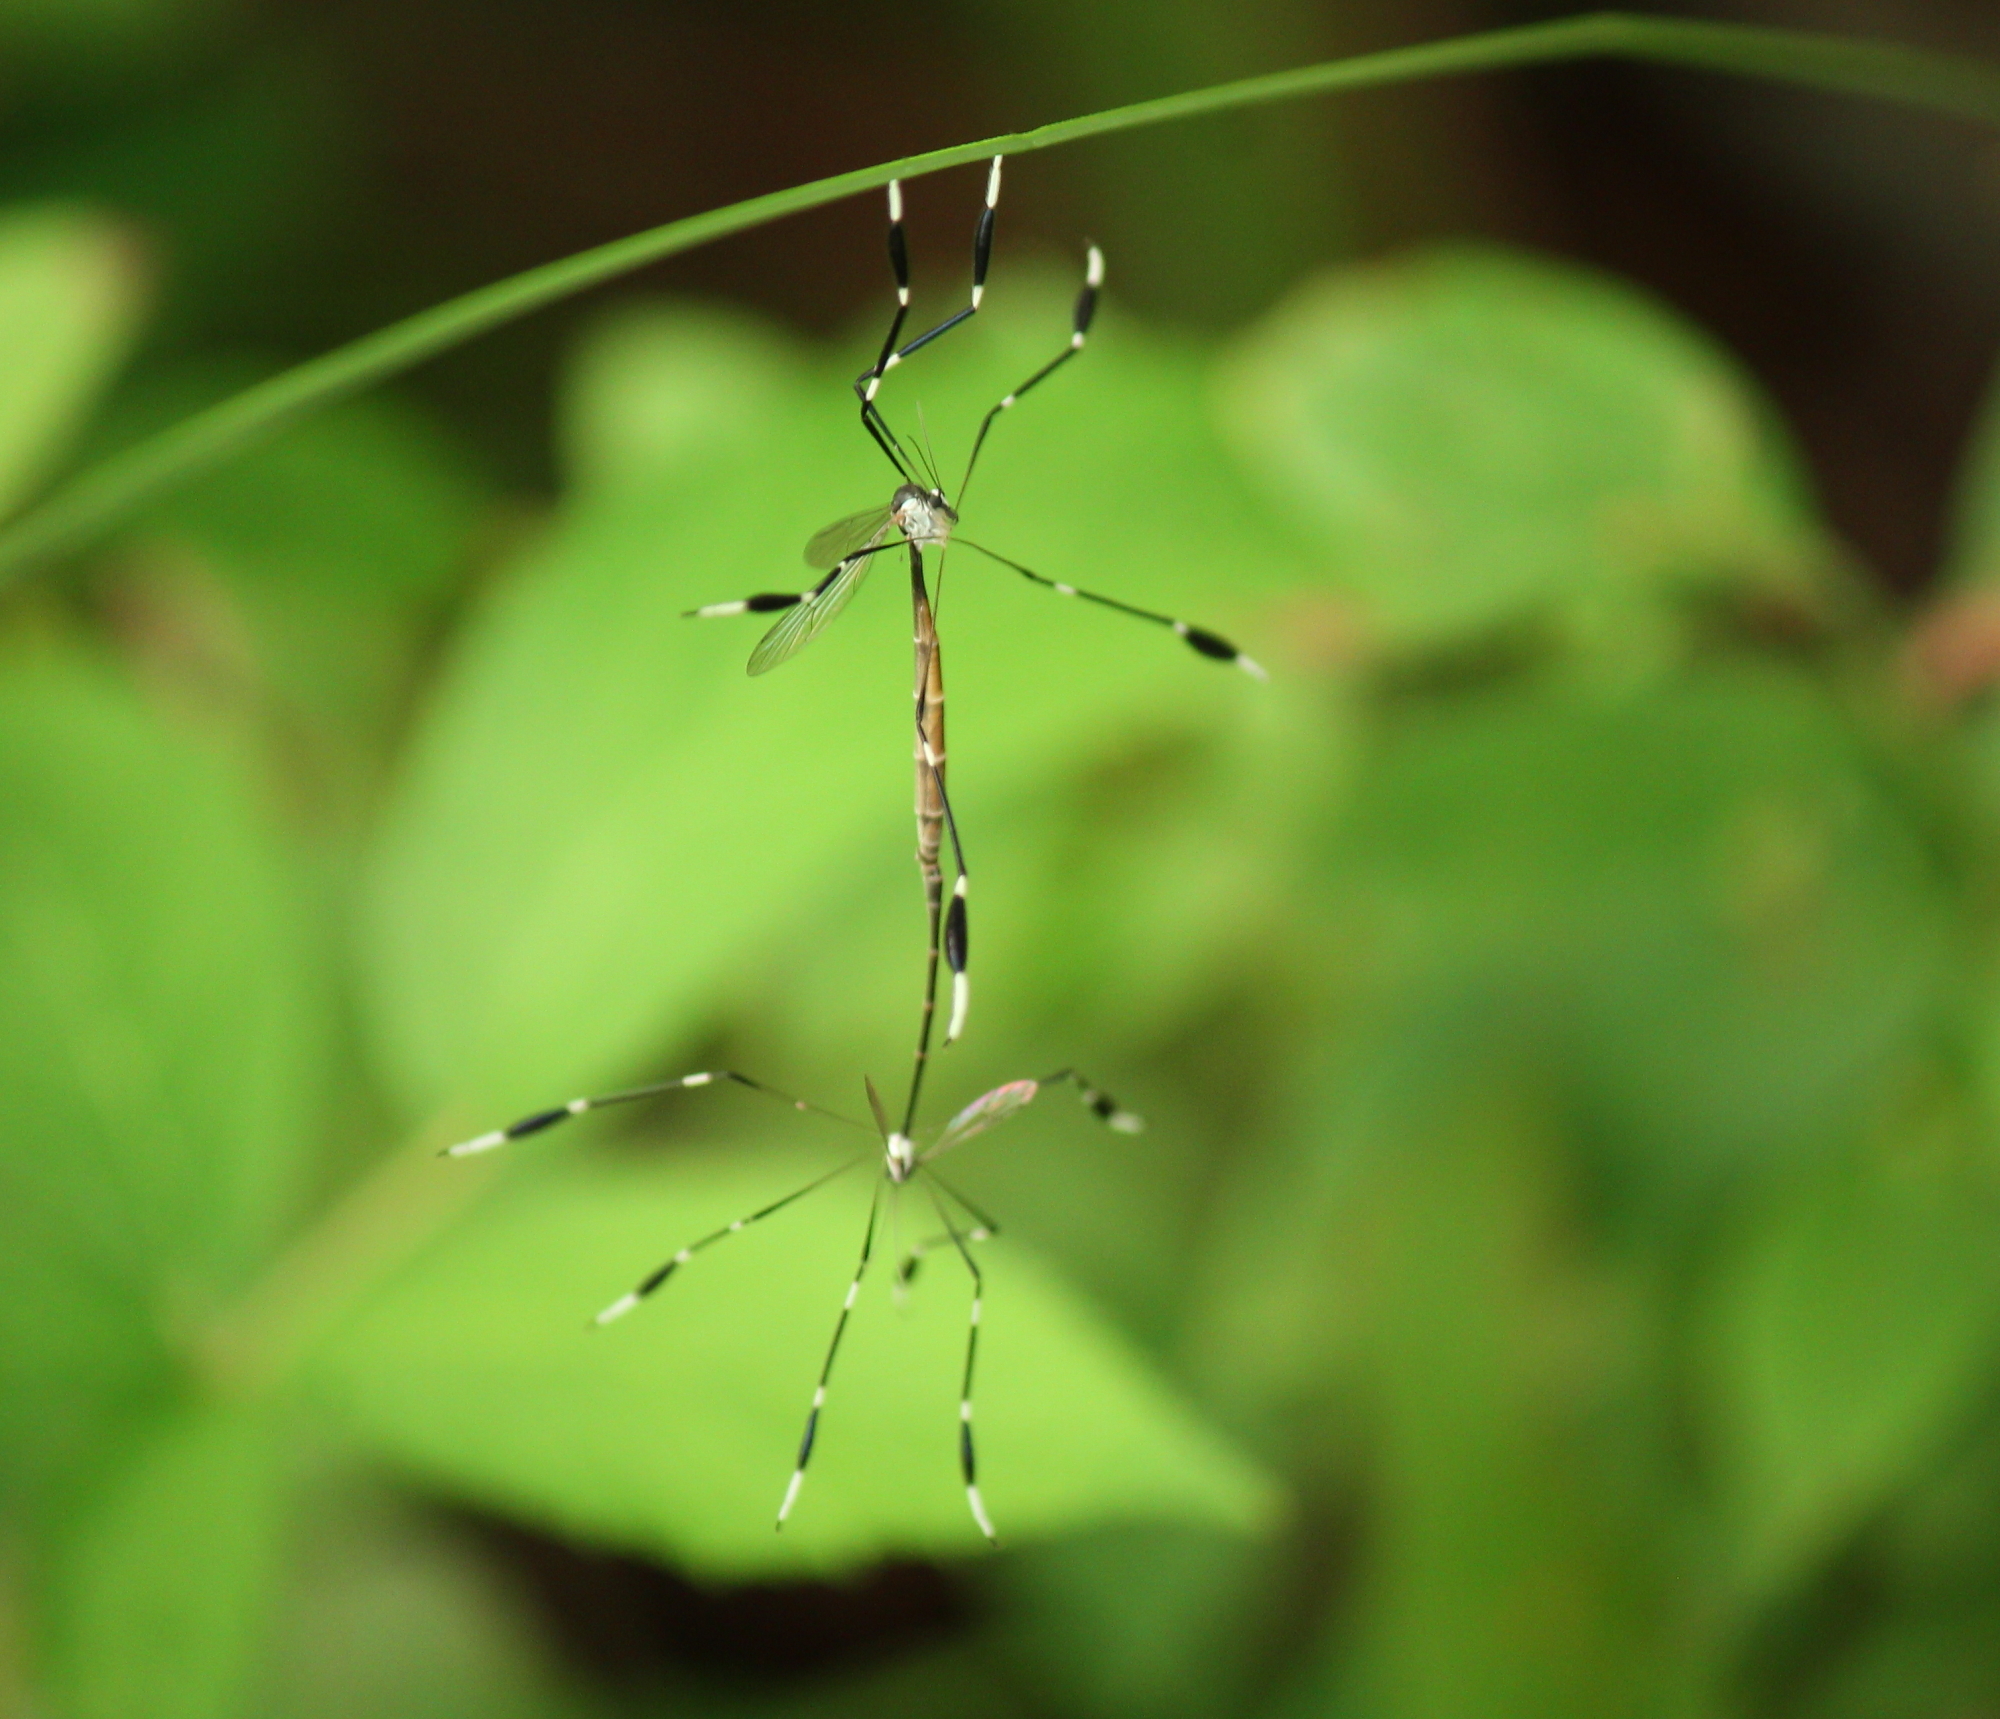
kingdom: Animalia
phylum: Arthropoda
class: Insecta
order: Diptera
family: Ptychopteridae
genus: Bittacomorpha
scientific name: Bittacomorpha clavipes
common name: Eastern phantom crane fly
